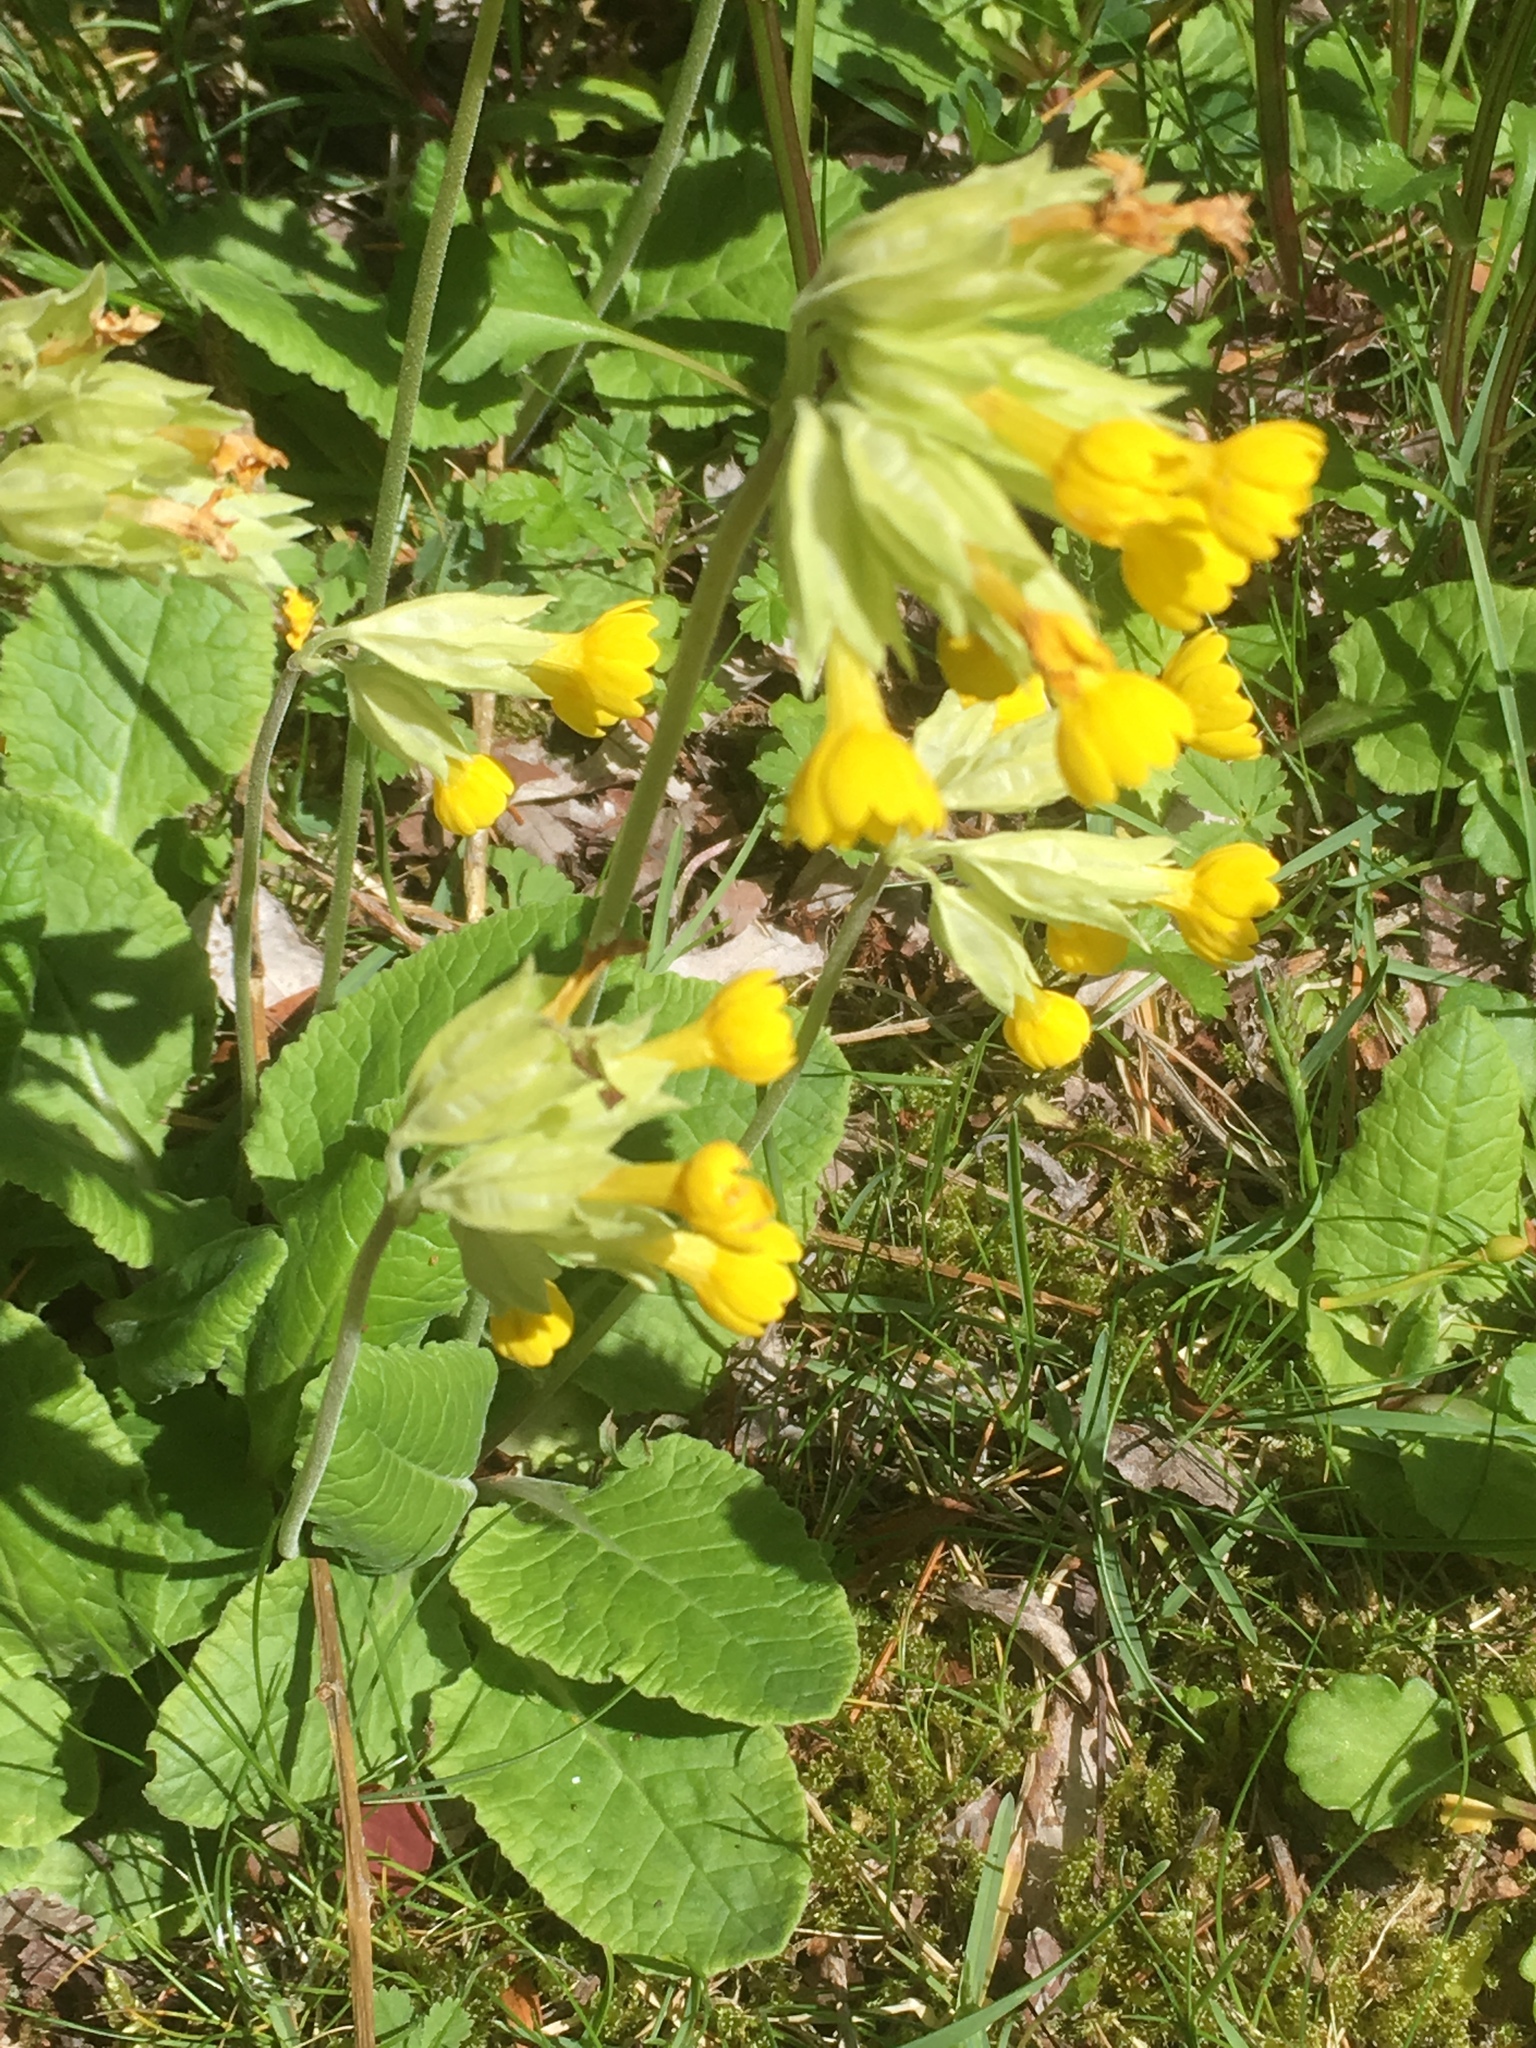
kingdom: Plantae
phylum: Tracheophyta
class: Magnoliopsida
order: Ericales
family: Primulaceae
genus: Primula
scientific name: Primula veris
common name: Cowslip
